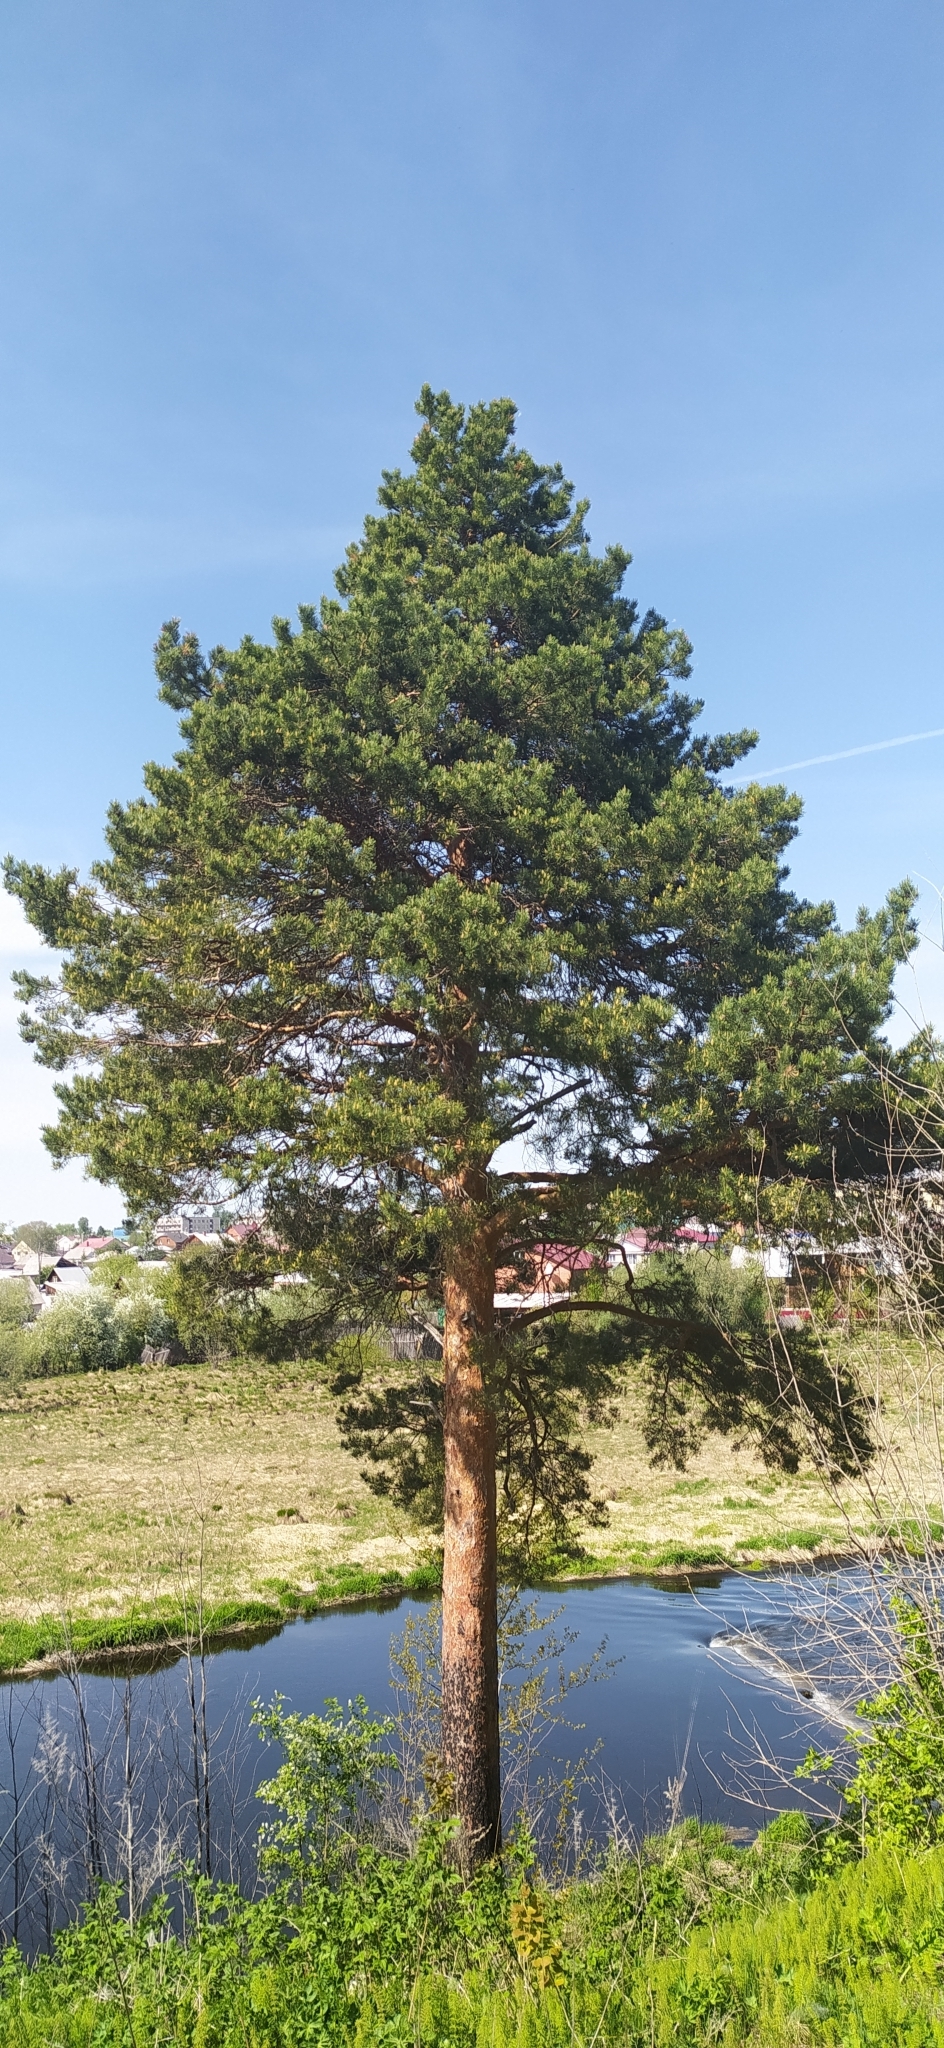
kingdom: Plantae
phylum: Tracheophyta
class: Pinopsida
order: Pinales
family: Pinaceae
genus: Pinus
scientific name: Pinus sylvestris
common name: Scots pine
